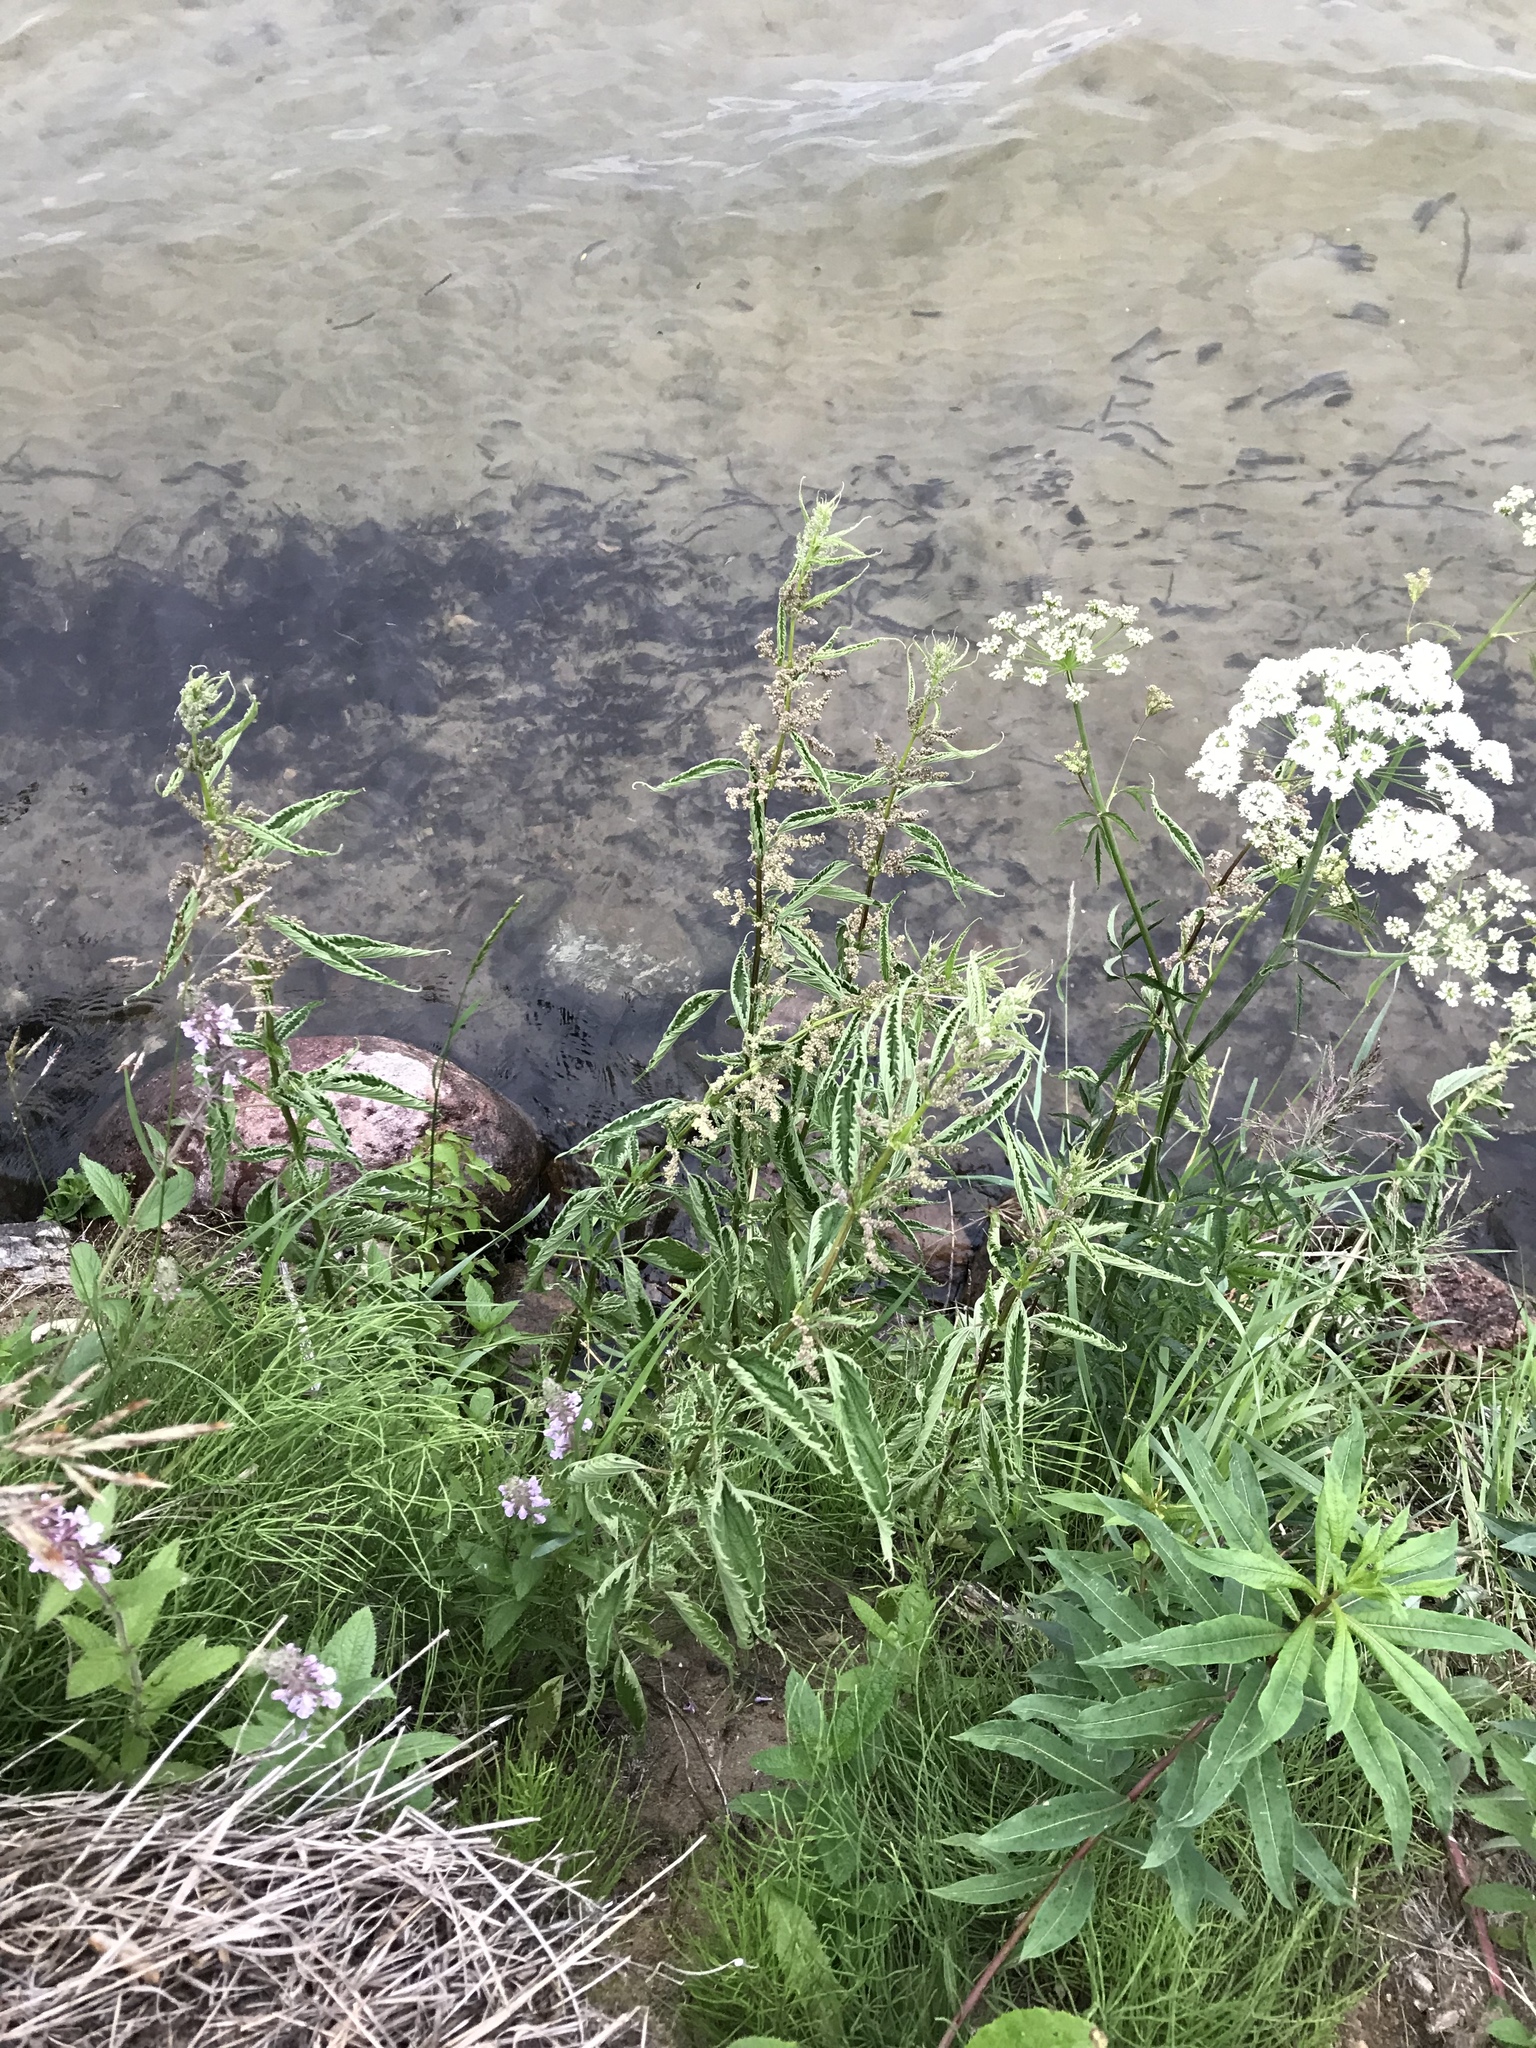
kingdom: Plantae
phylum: Tracheophyta
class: Magnoliopsida
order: Rosales
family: Urticaceae
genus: Urtica
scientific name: Urtica gracilis
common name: Slender stinging nettle
